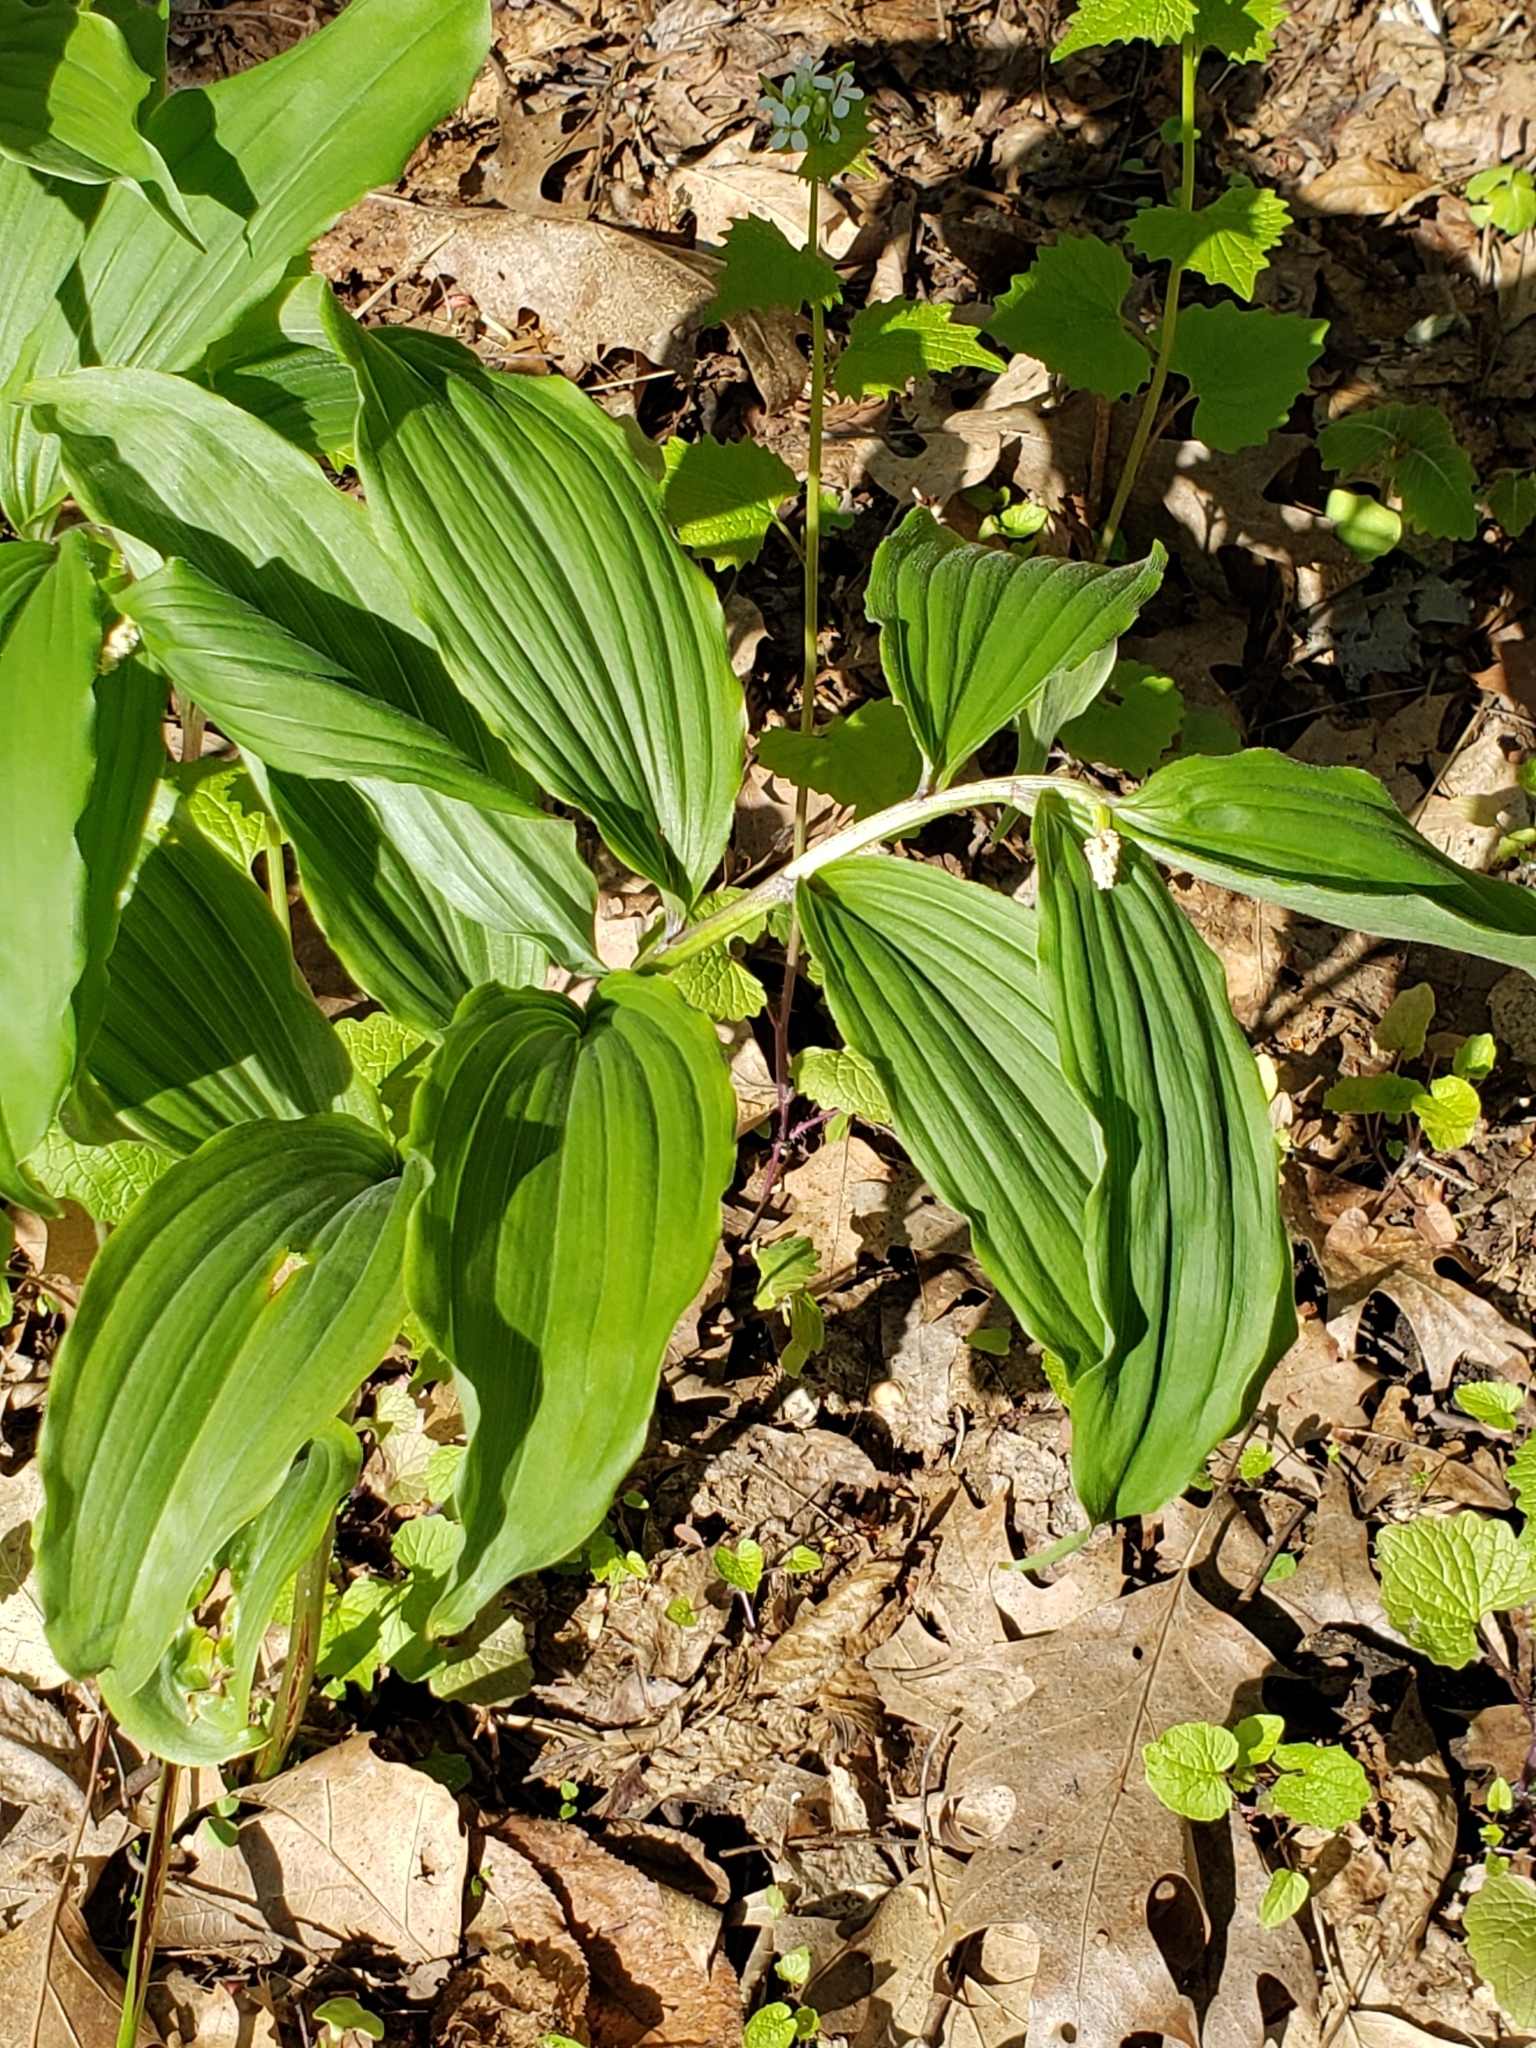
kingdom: Plantae
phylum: Tracheophyta
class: Liliopsida
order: Asparagales
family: Asparagaceae
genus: Maianthemum
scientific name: Maianthemum racemosum
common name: False spikenard
